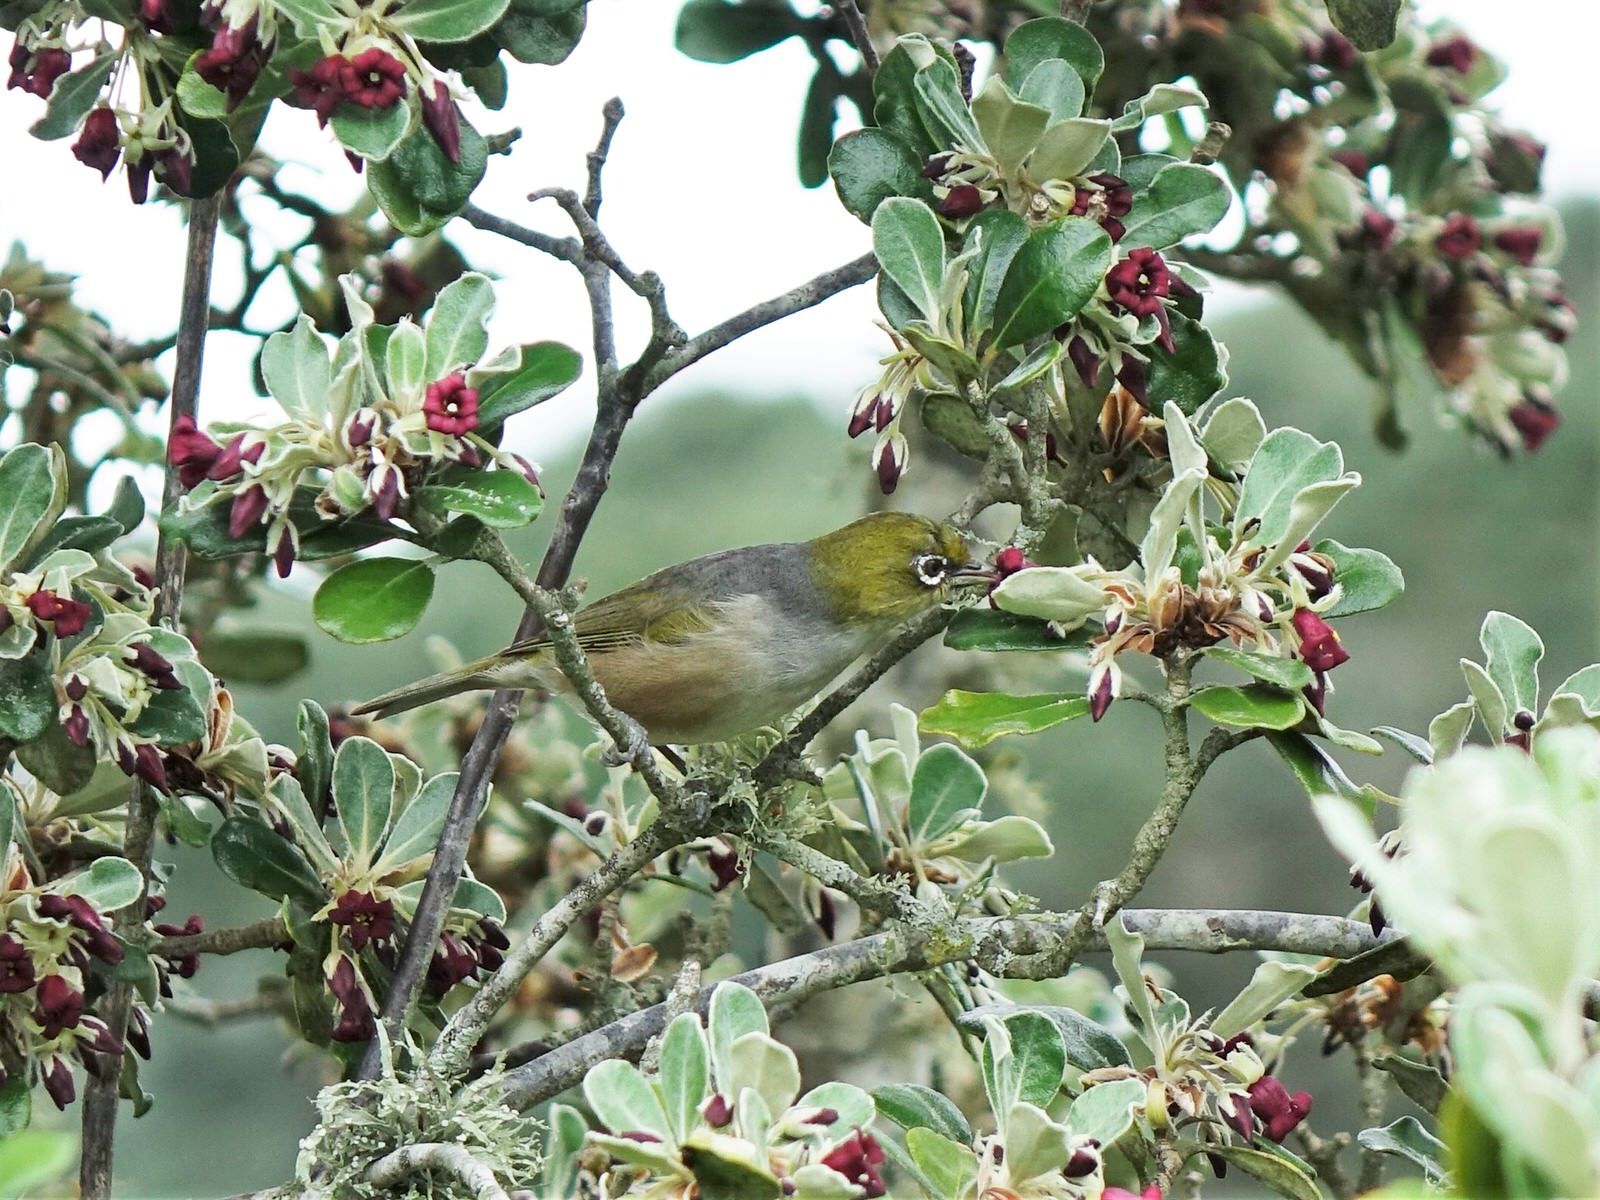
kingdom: Animalia
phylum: Chordata
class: Aves
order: Passeriformes
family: Zosteropidae
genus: Zosterops
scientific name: Zosterops lateralis
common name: Silvereye
